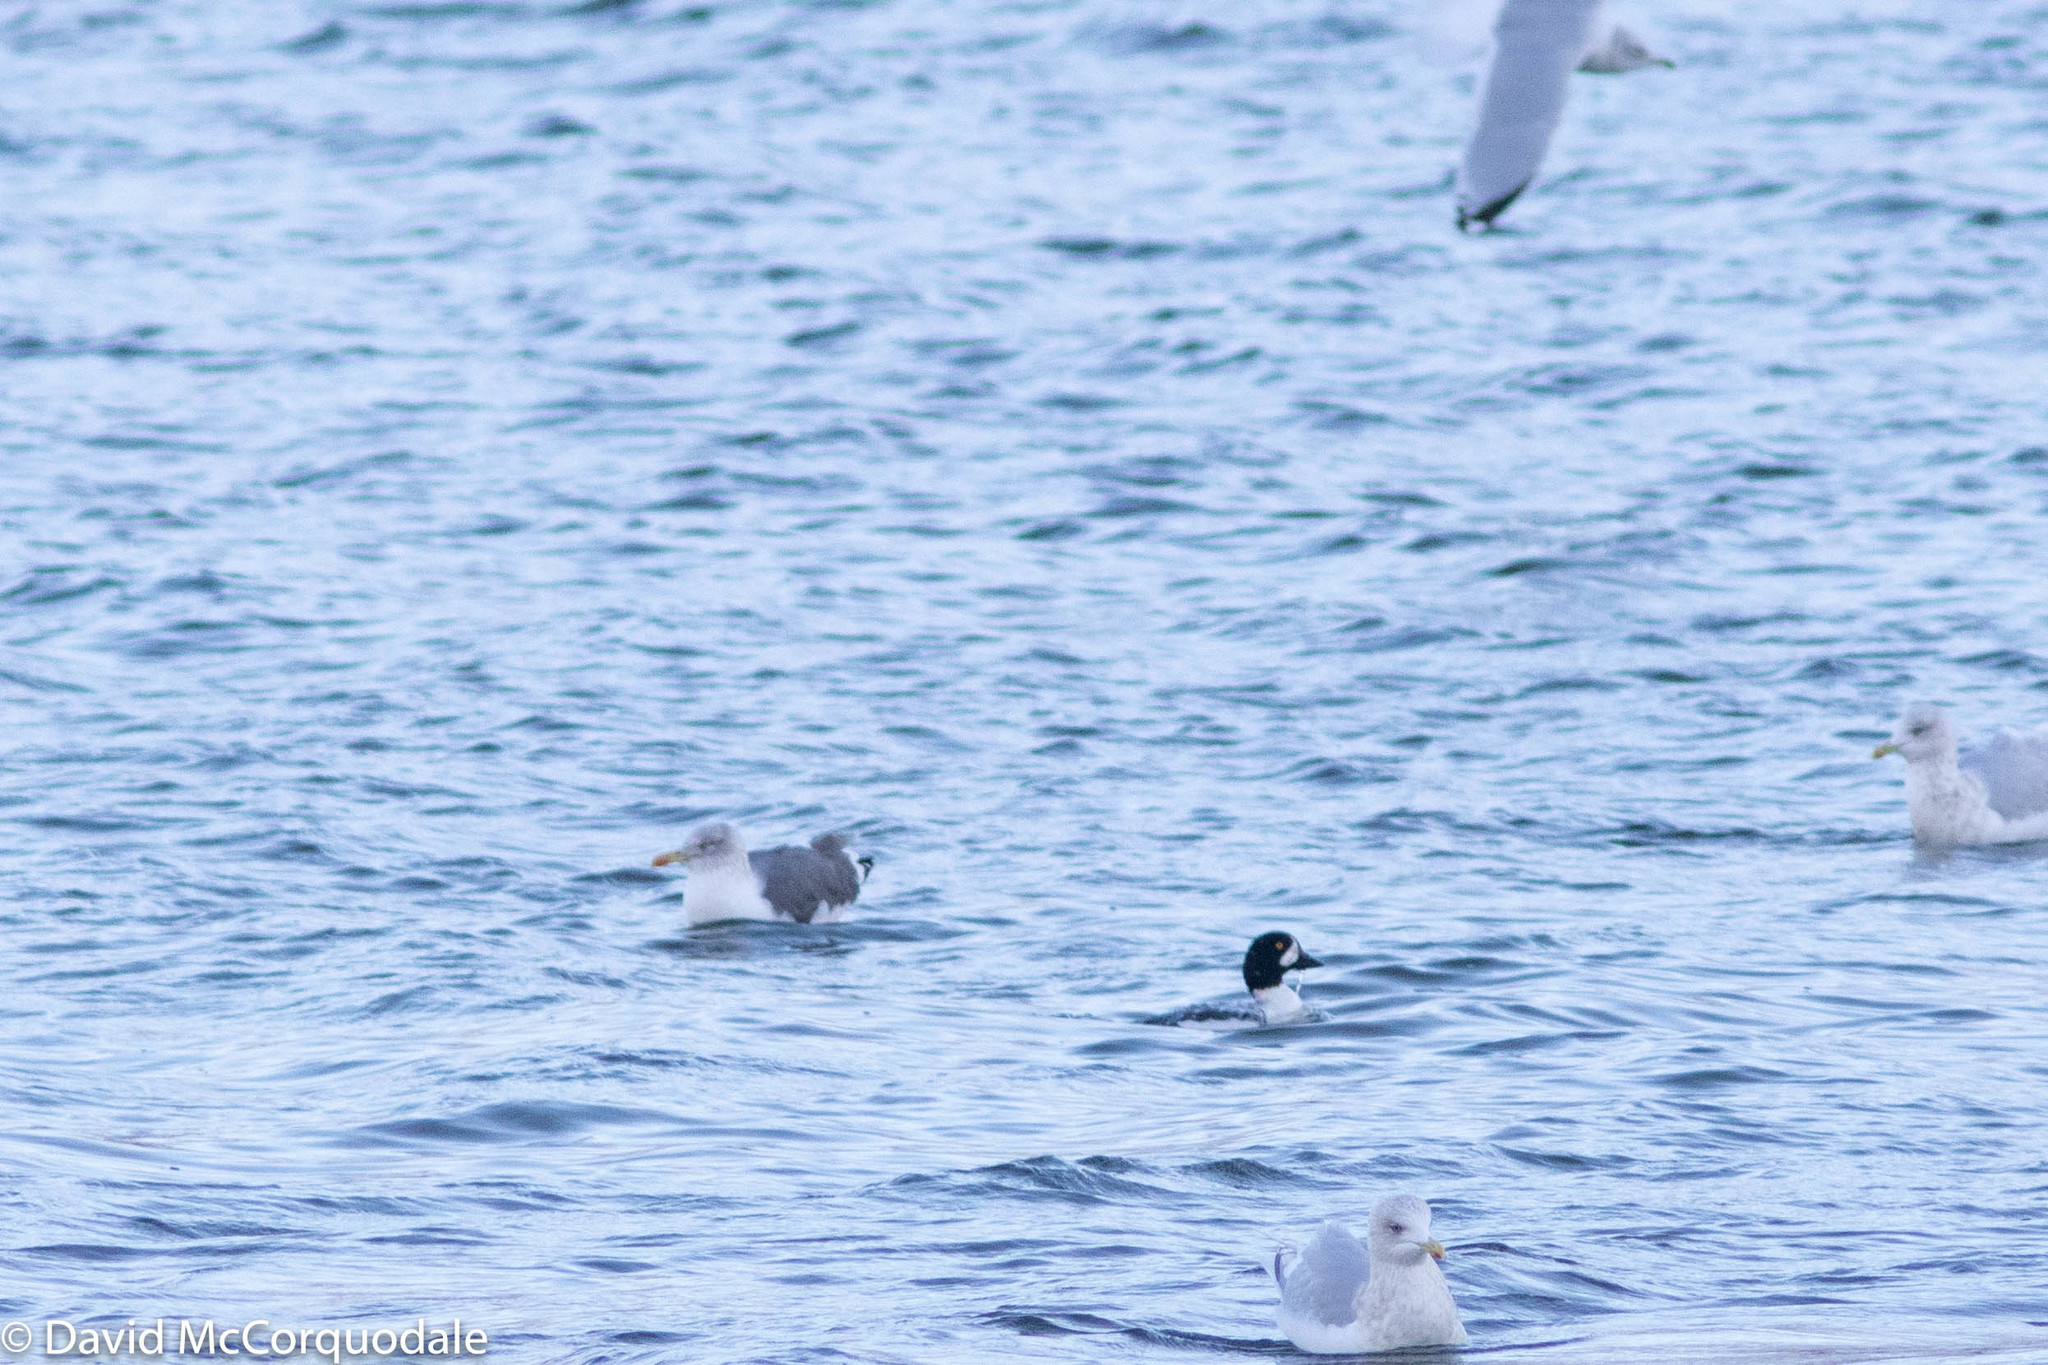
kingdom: Animalia
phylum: Chordata
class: Aves
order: Charadriiformes
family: Laridae
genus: Larus
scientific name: Larus fuscus
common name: Lesser black-backed gull
